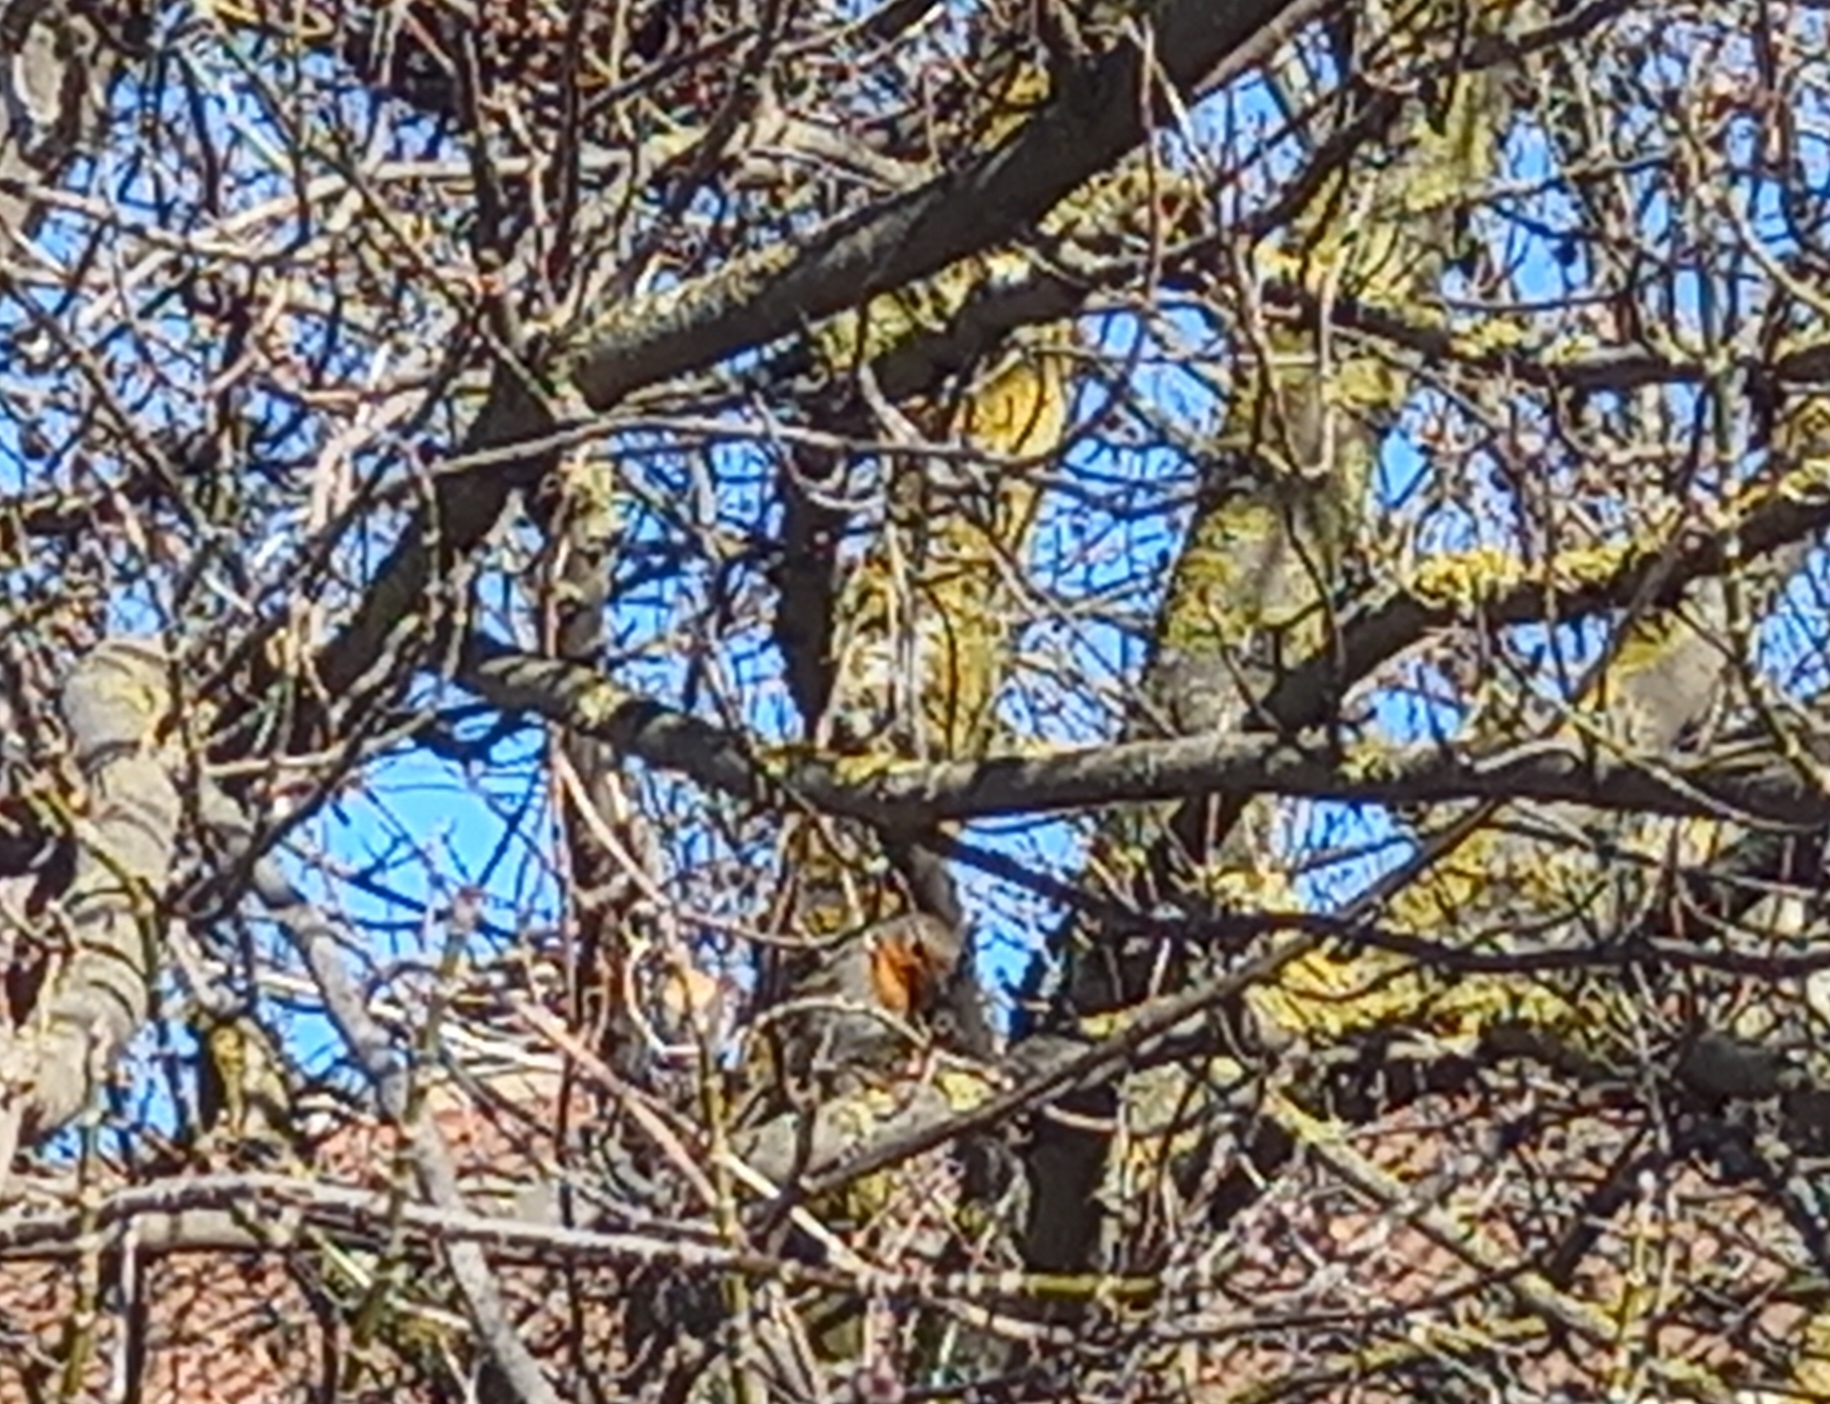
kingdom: Animalia
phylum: Chordata
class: Aves
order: Passeriformes
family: Muscicapidae
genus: Erithacus
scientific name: Erithacus rubecula
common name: European robin
